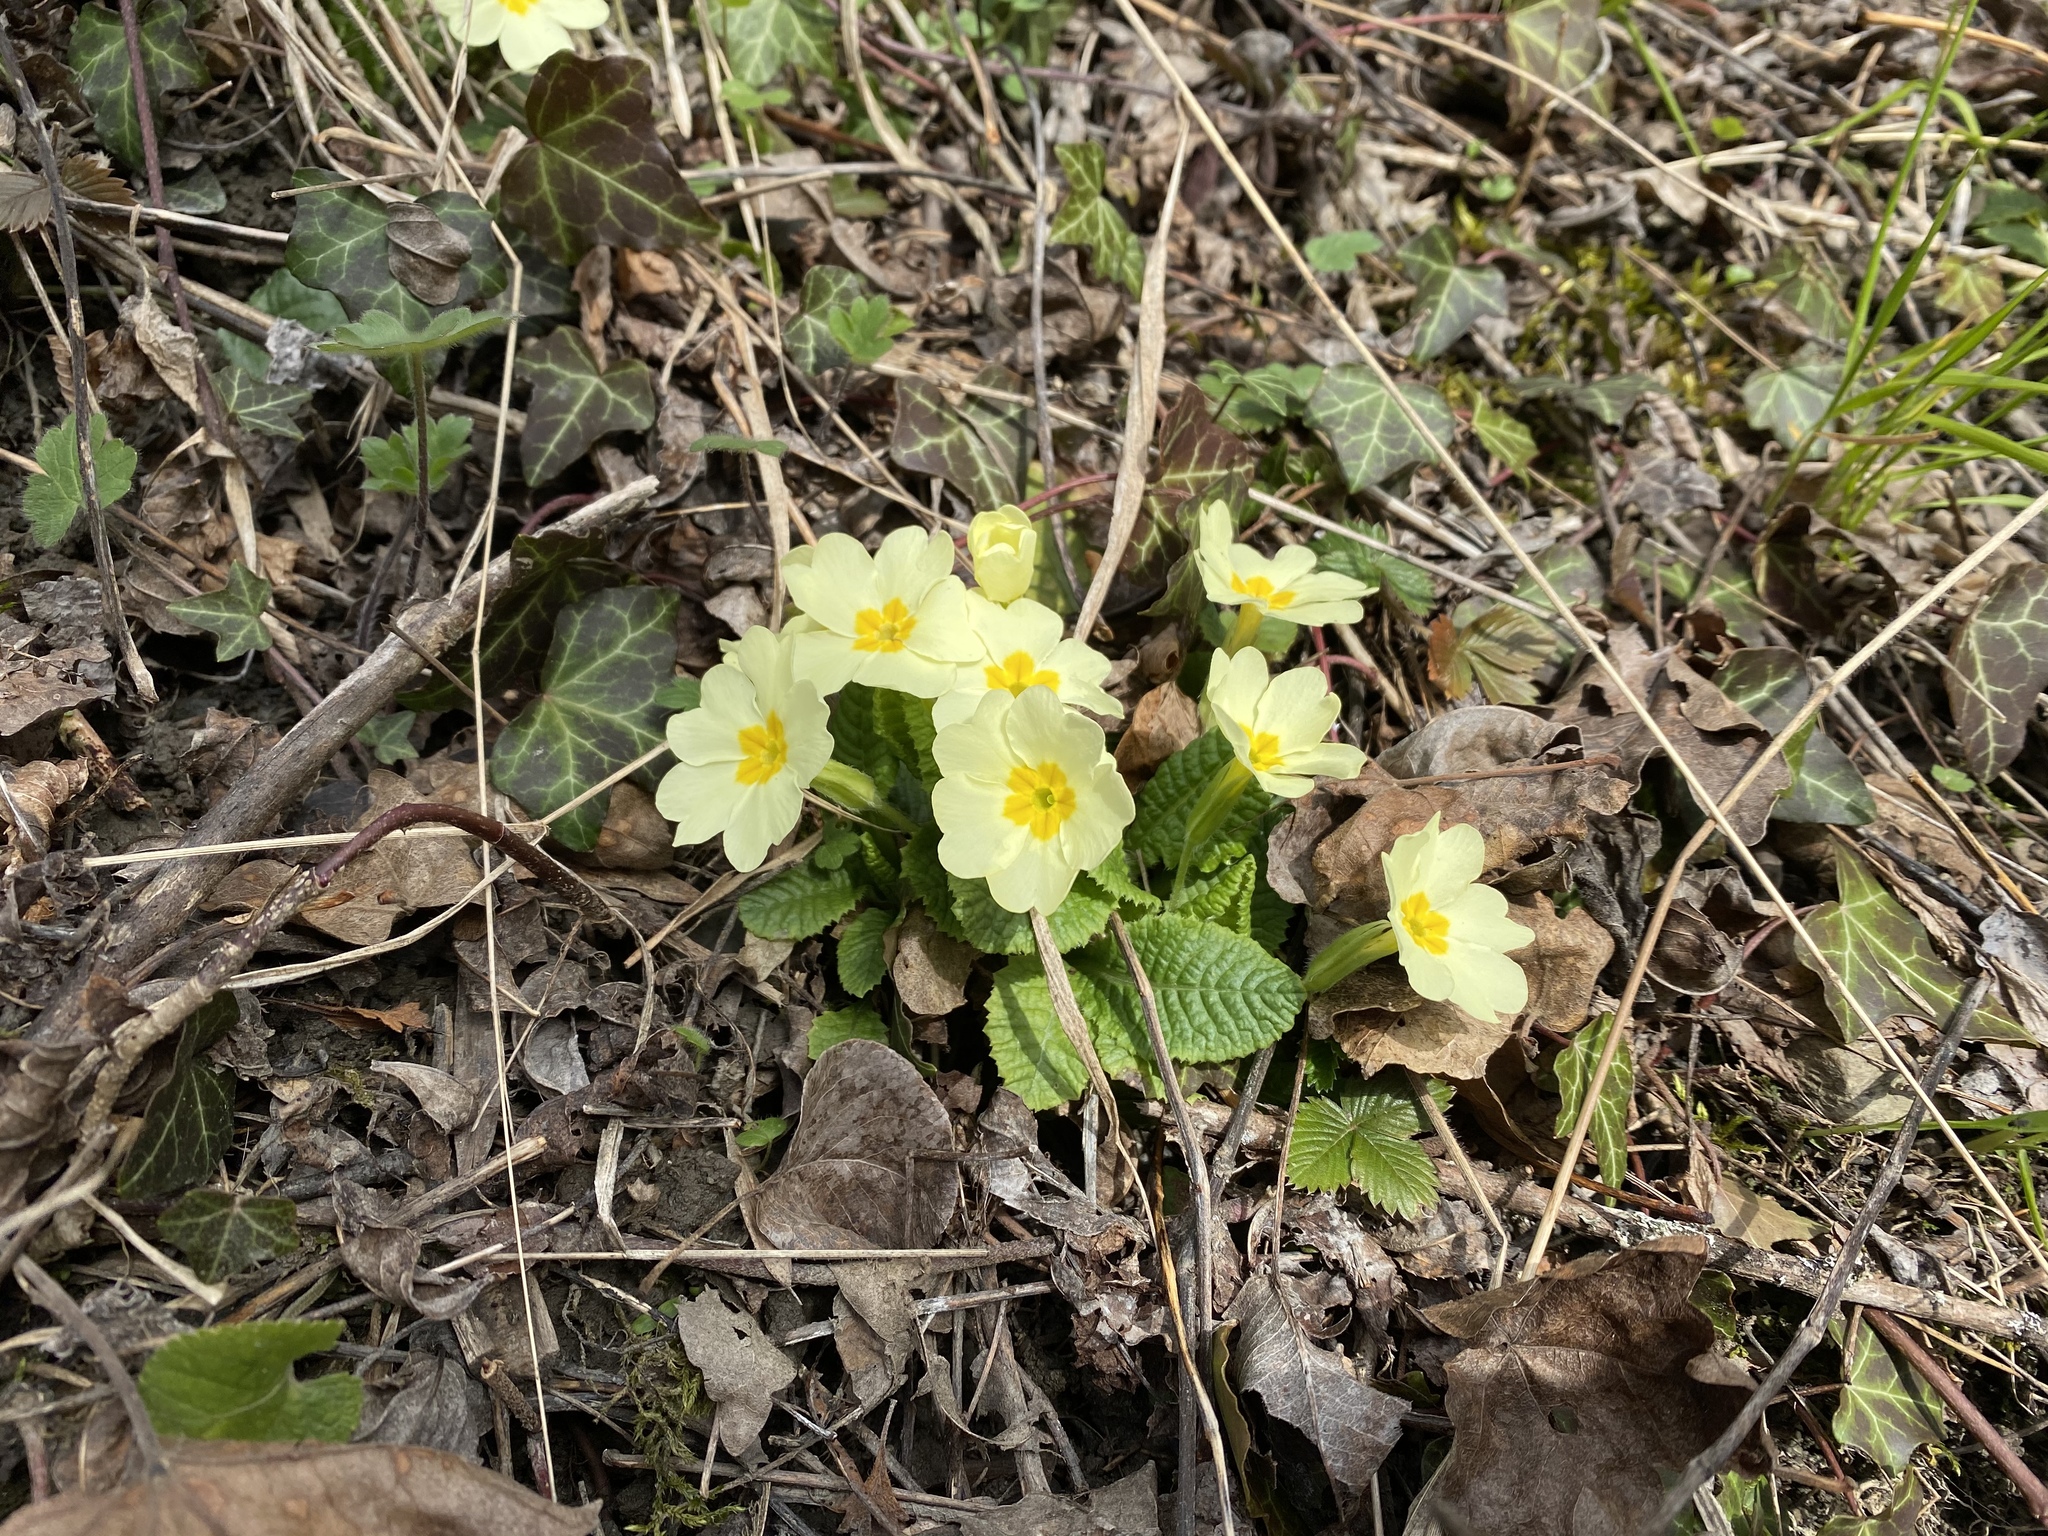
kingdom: Plantae
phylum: Tracheophyta
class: Magnoliopsida
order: Ericales
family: Primulaceae
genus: Primula
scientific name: Primula vulgaris
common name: Primrose
